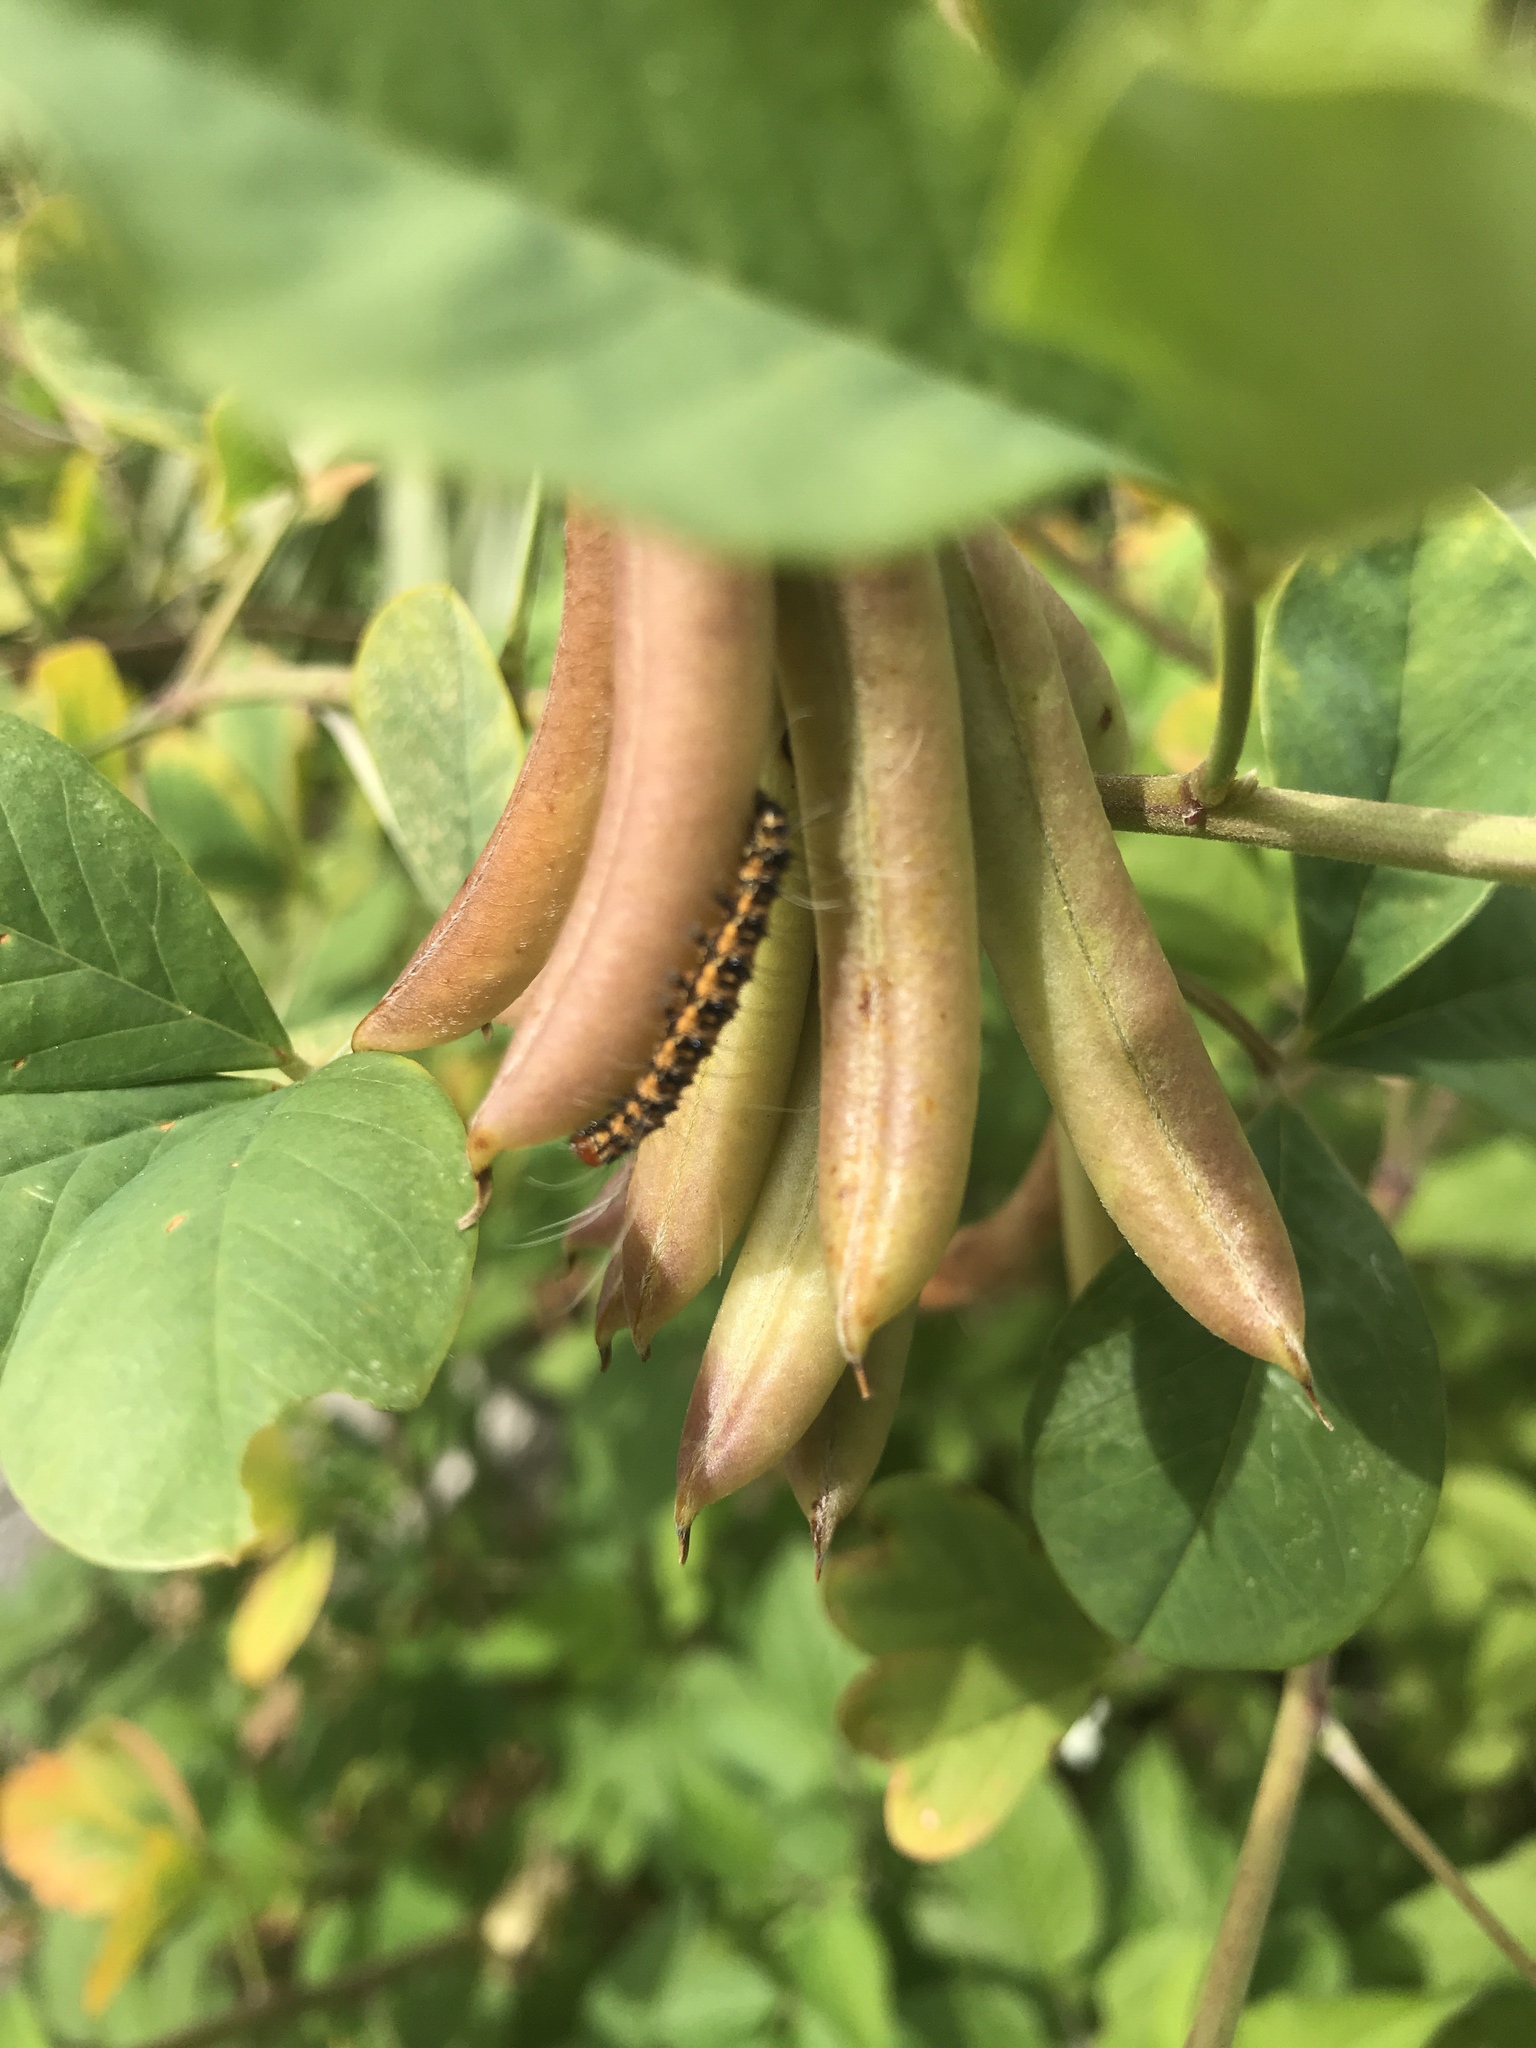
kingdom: Animalia
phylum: Arthropoda
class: Insecta
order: Lepidoptera
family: Crambidae
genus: Uresiphita
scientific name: Uresiphita reversalis
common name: Genista broom moth
